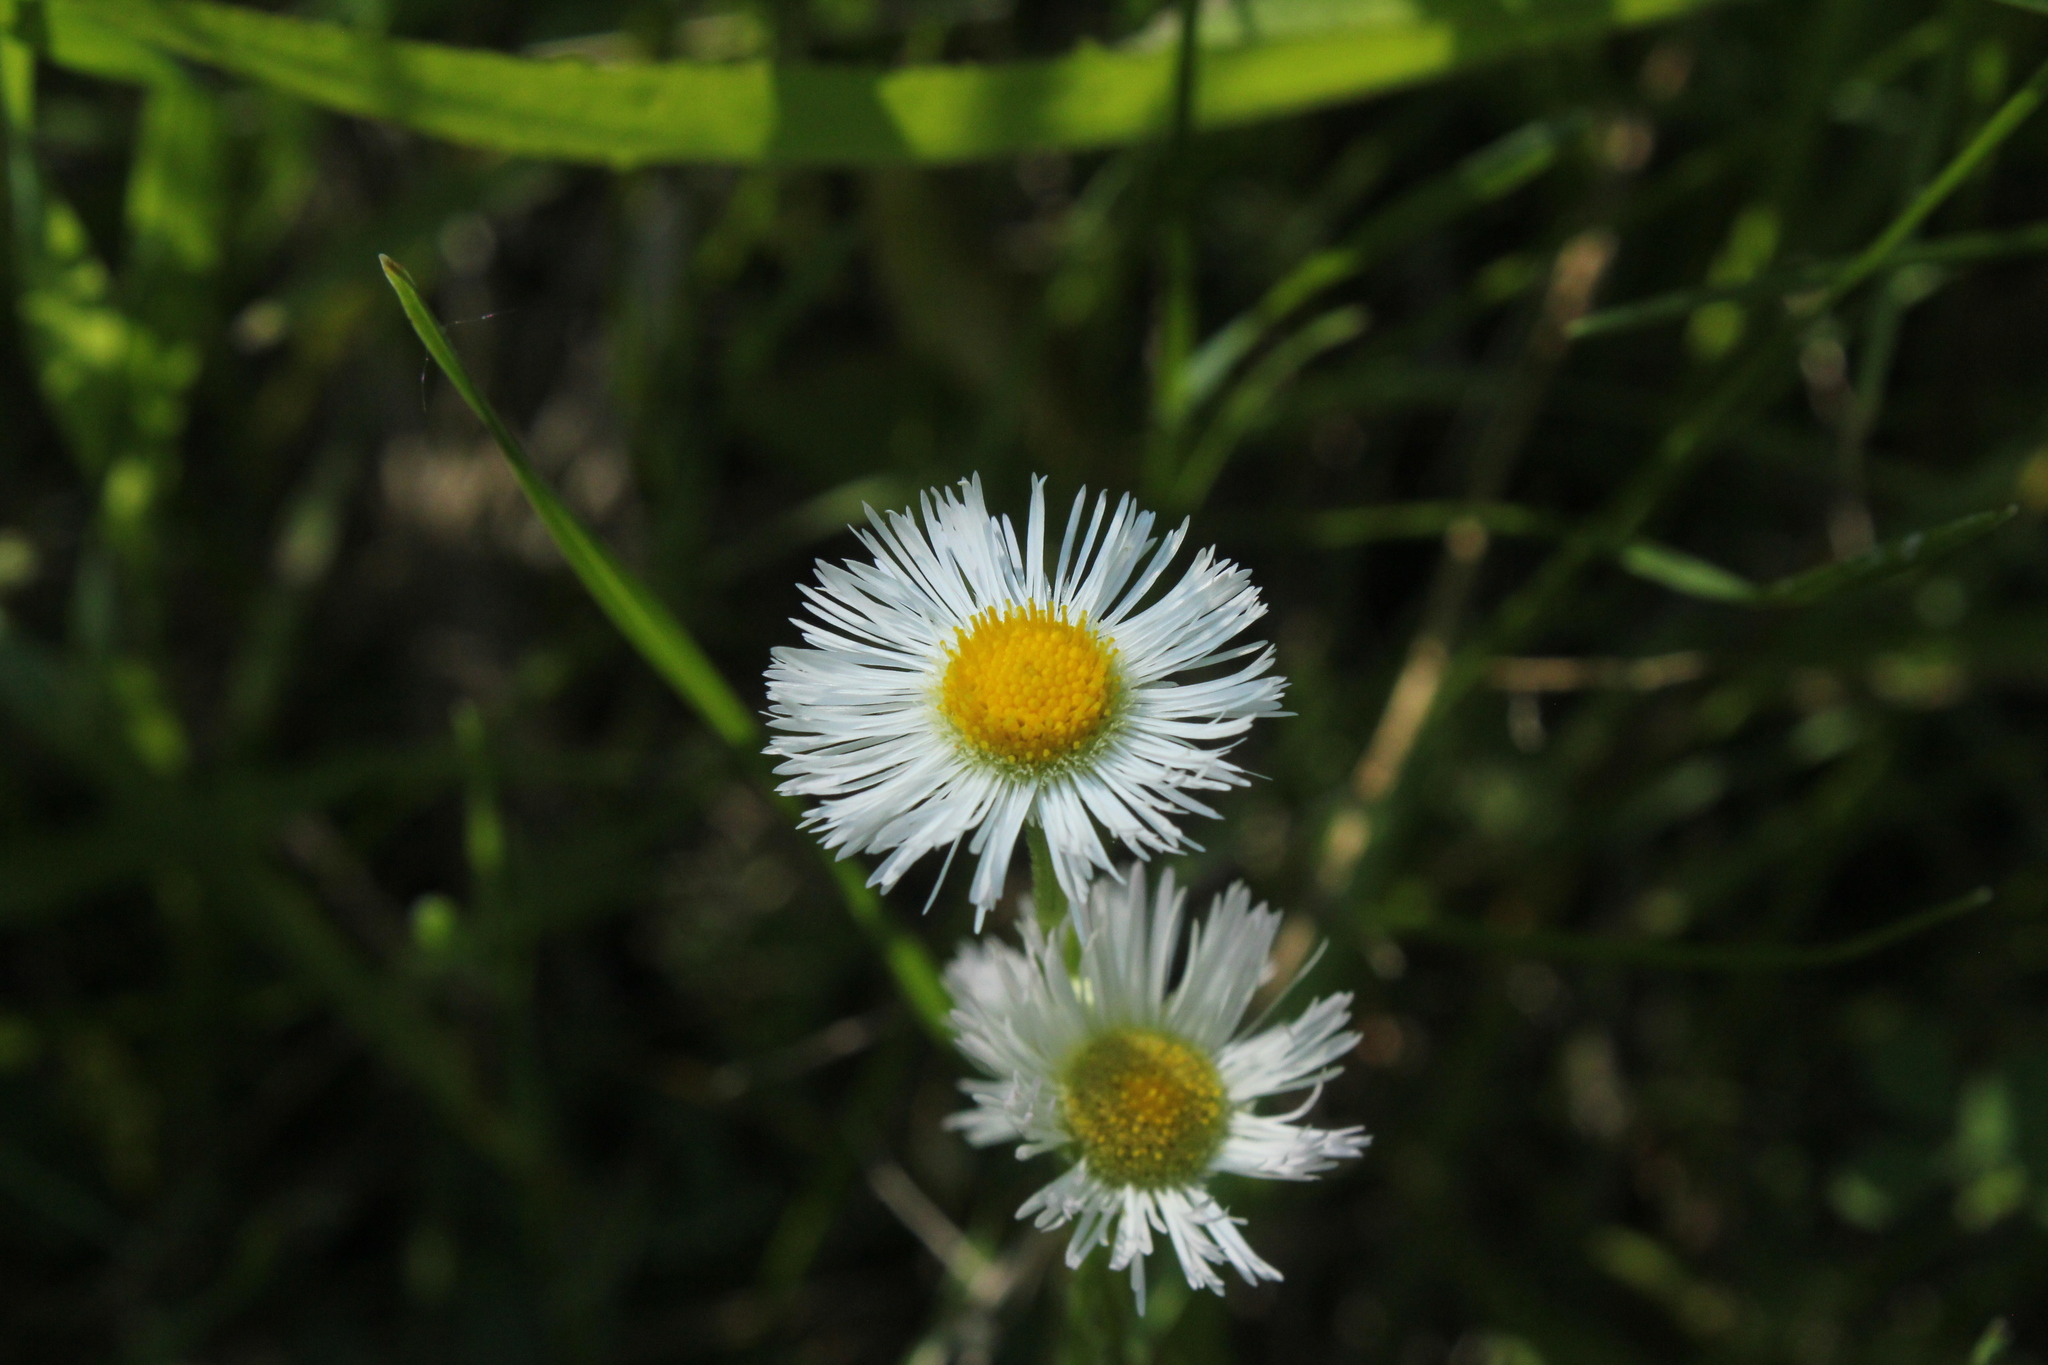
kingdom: Plantae
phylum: Tracheophyta
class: Magnoliopsida
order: Asterales
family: Asteraceae
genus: Erigeron
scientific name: Erigeron philadelphicus
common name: Robin's-plantain
